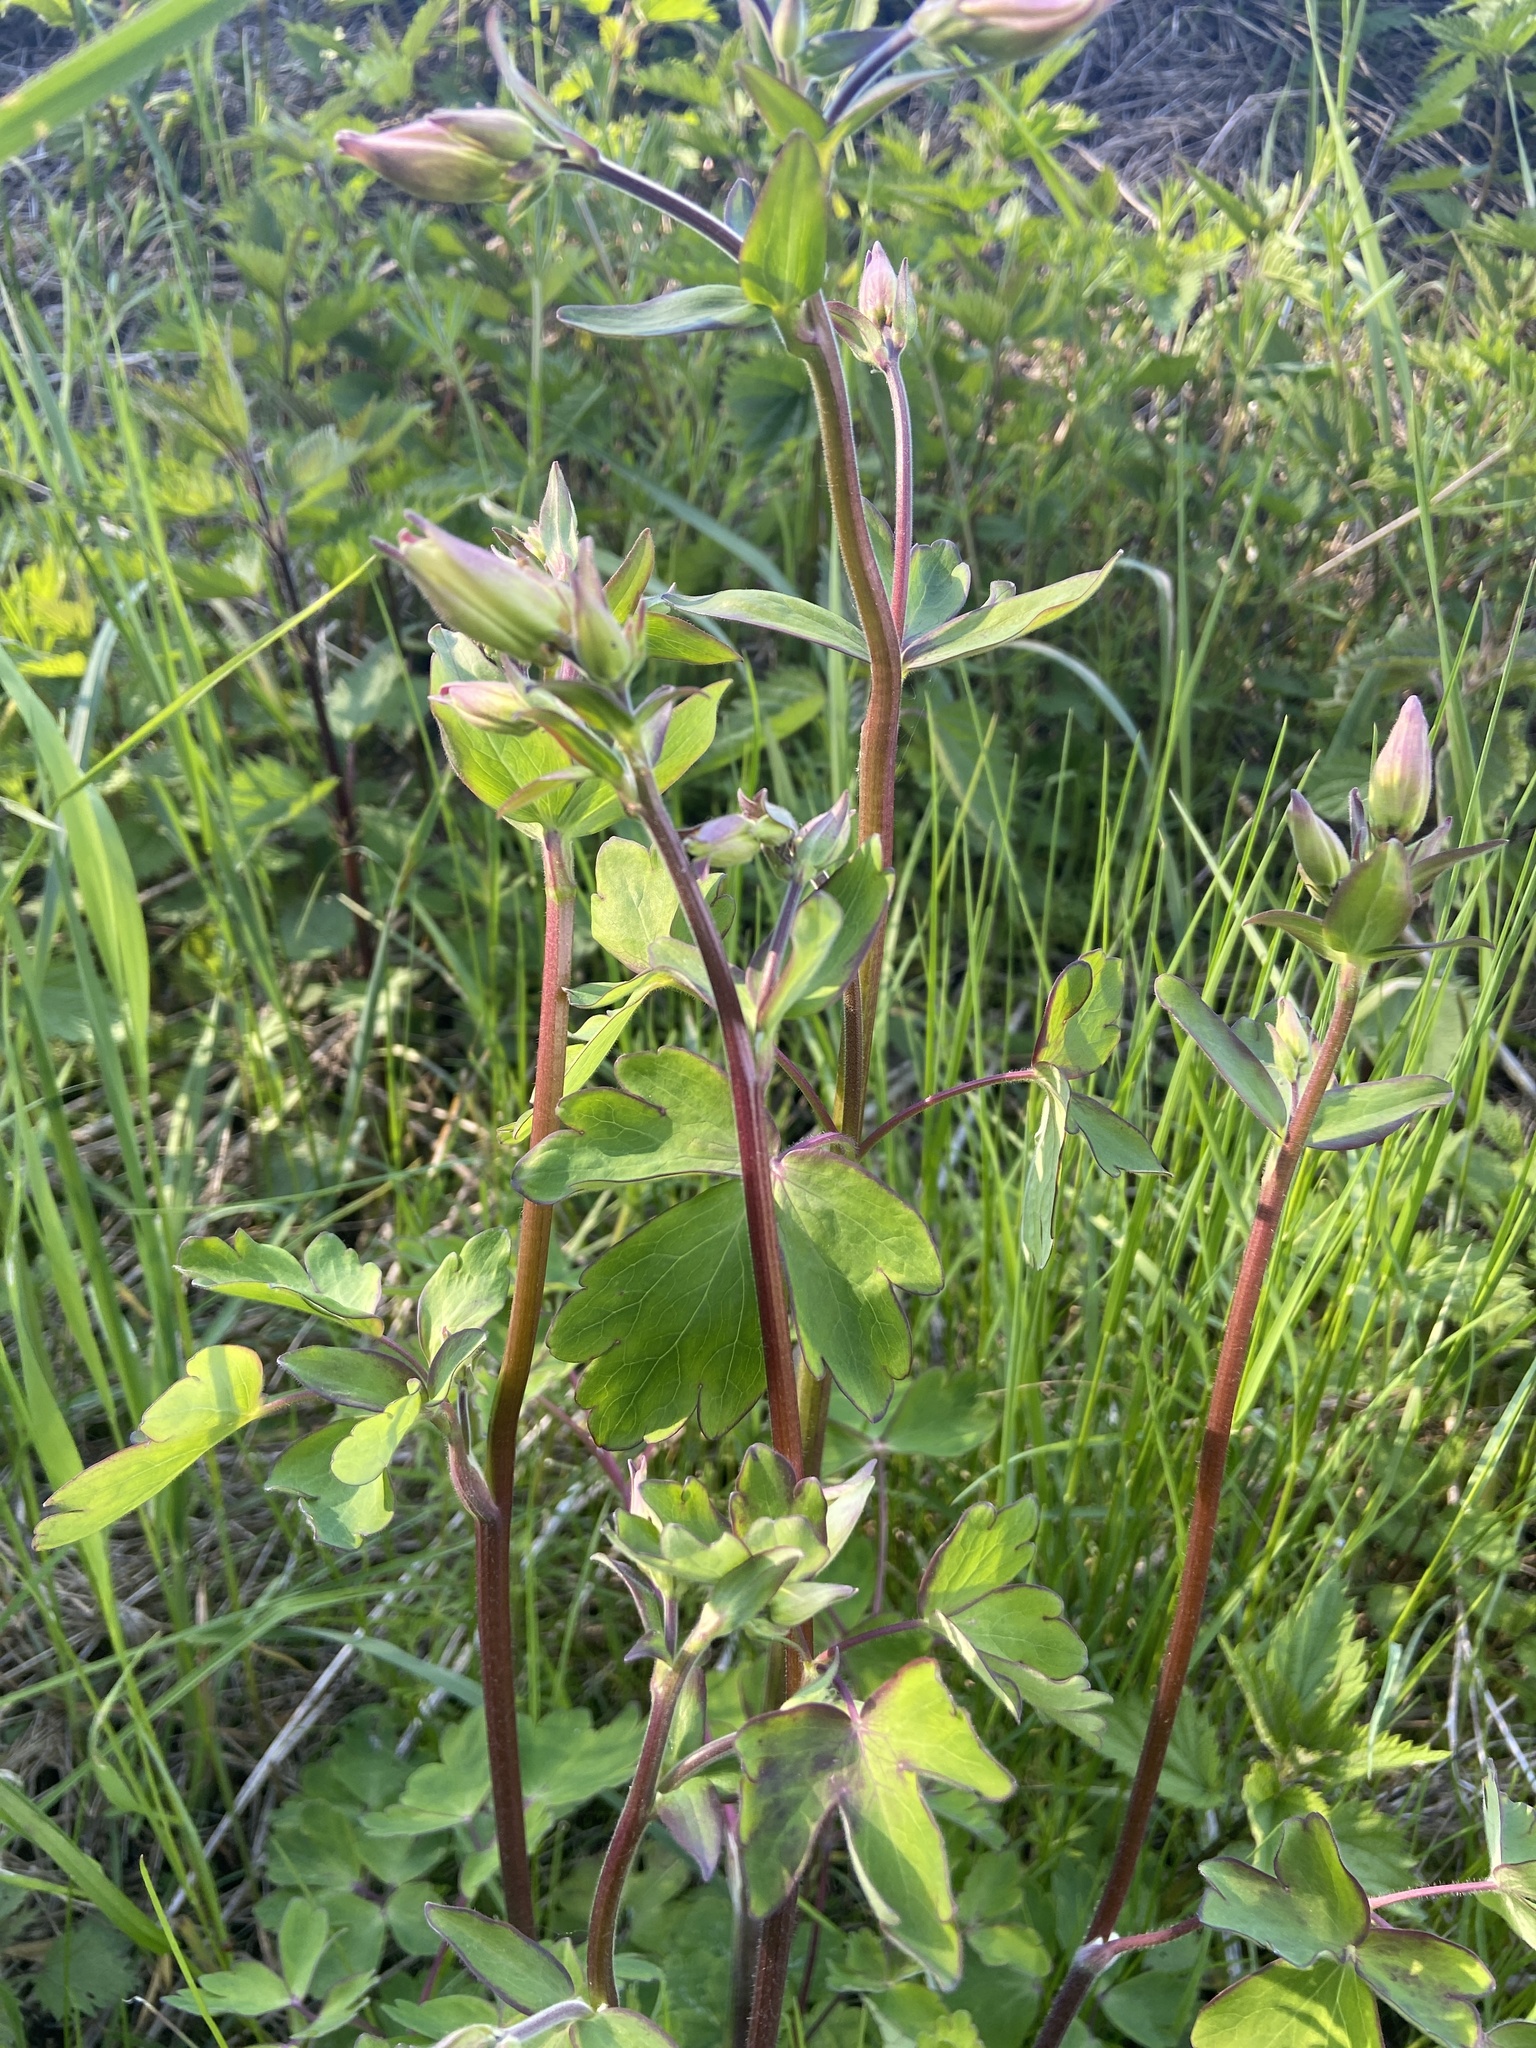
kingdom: Plantae
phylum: Tracheophyta
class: Magnoliopsida
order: Ranunculales
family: Ranunculaceae
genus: Aquilegia
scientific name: Aquilegia vulgaris
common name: Columbine
